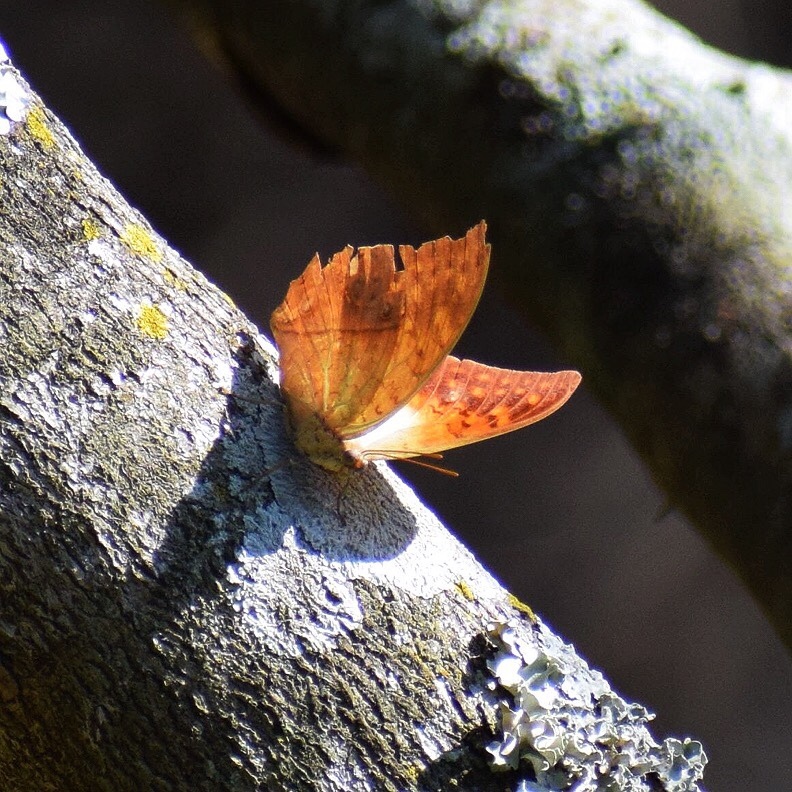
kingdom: Animalia
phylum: Arthropoda
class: Insecta
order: Lepidoptera
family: Nymphalidae
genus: Charaxes
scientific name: Charaxes varanes
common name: Common pearl charaxes
